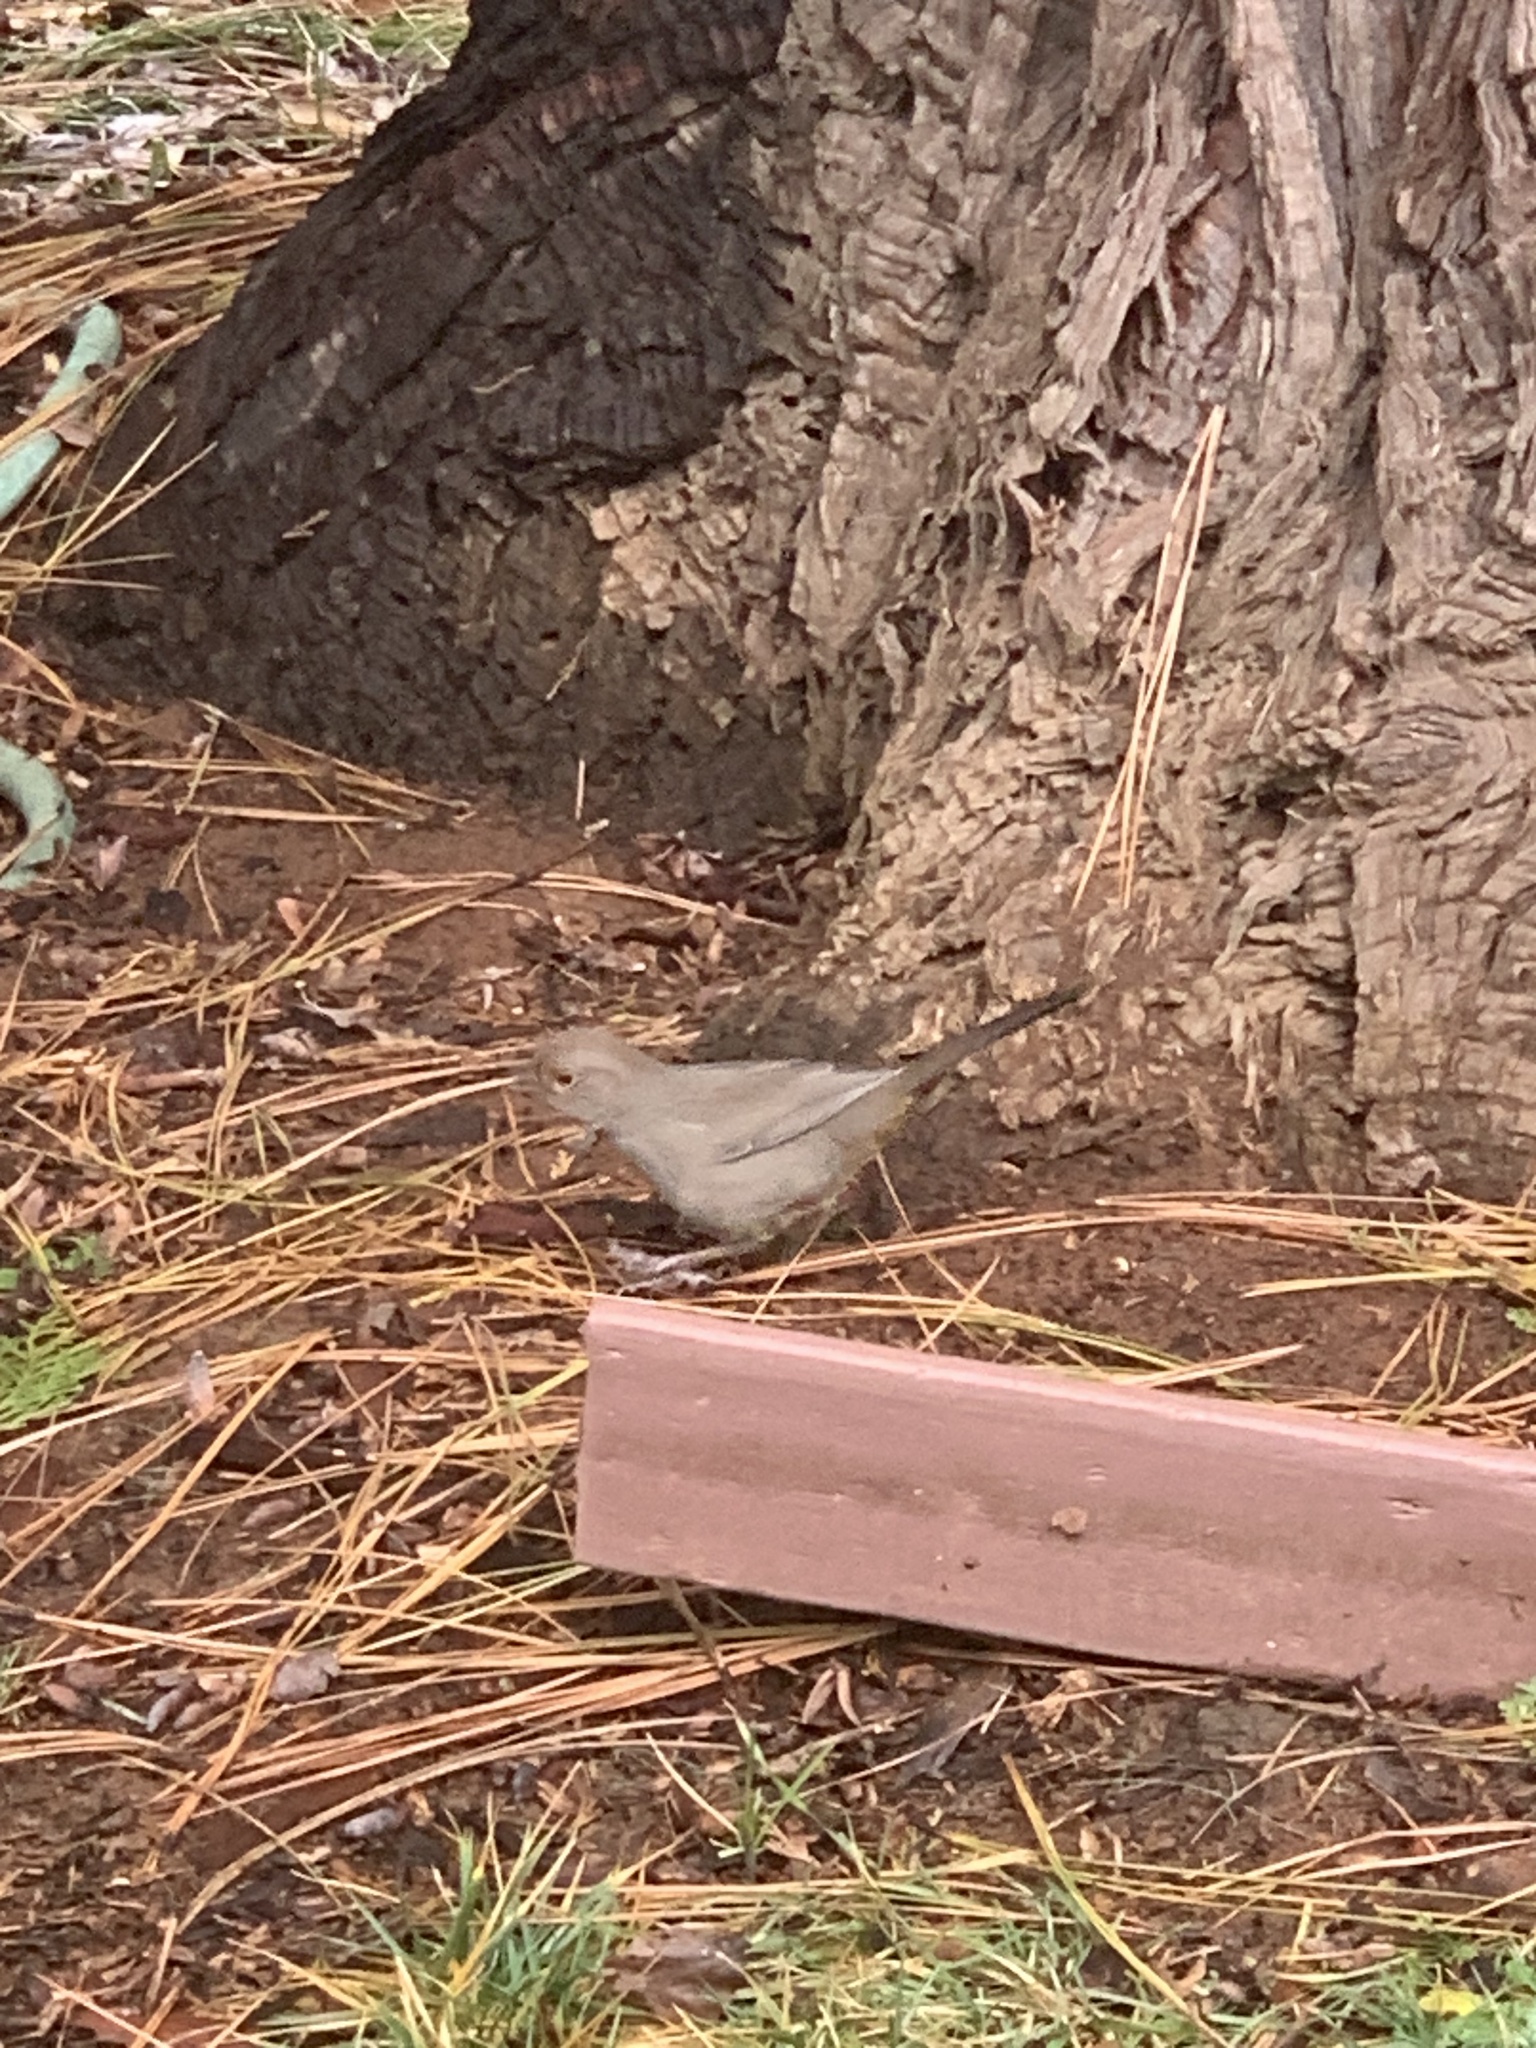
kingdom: Animalia
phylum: Chordata
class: Aves
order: Passeriformes
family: Passerellidae
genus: Melozone
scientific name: Melozone crissalis
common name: California towhee
